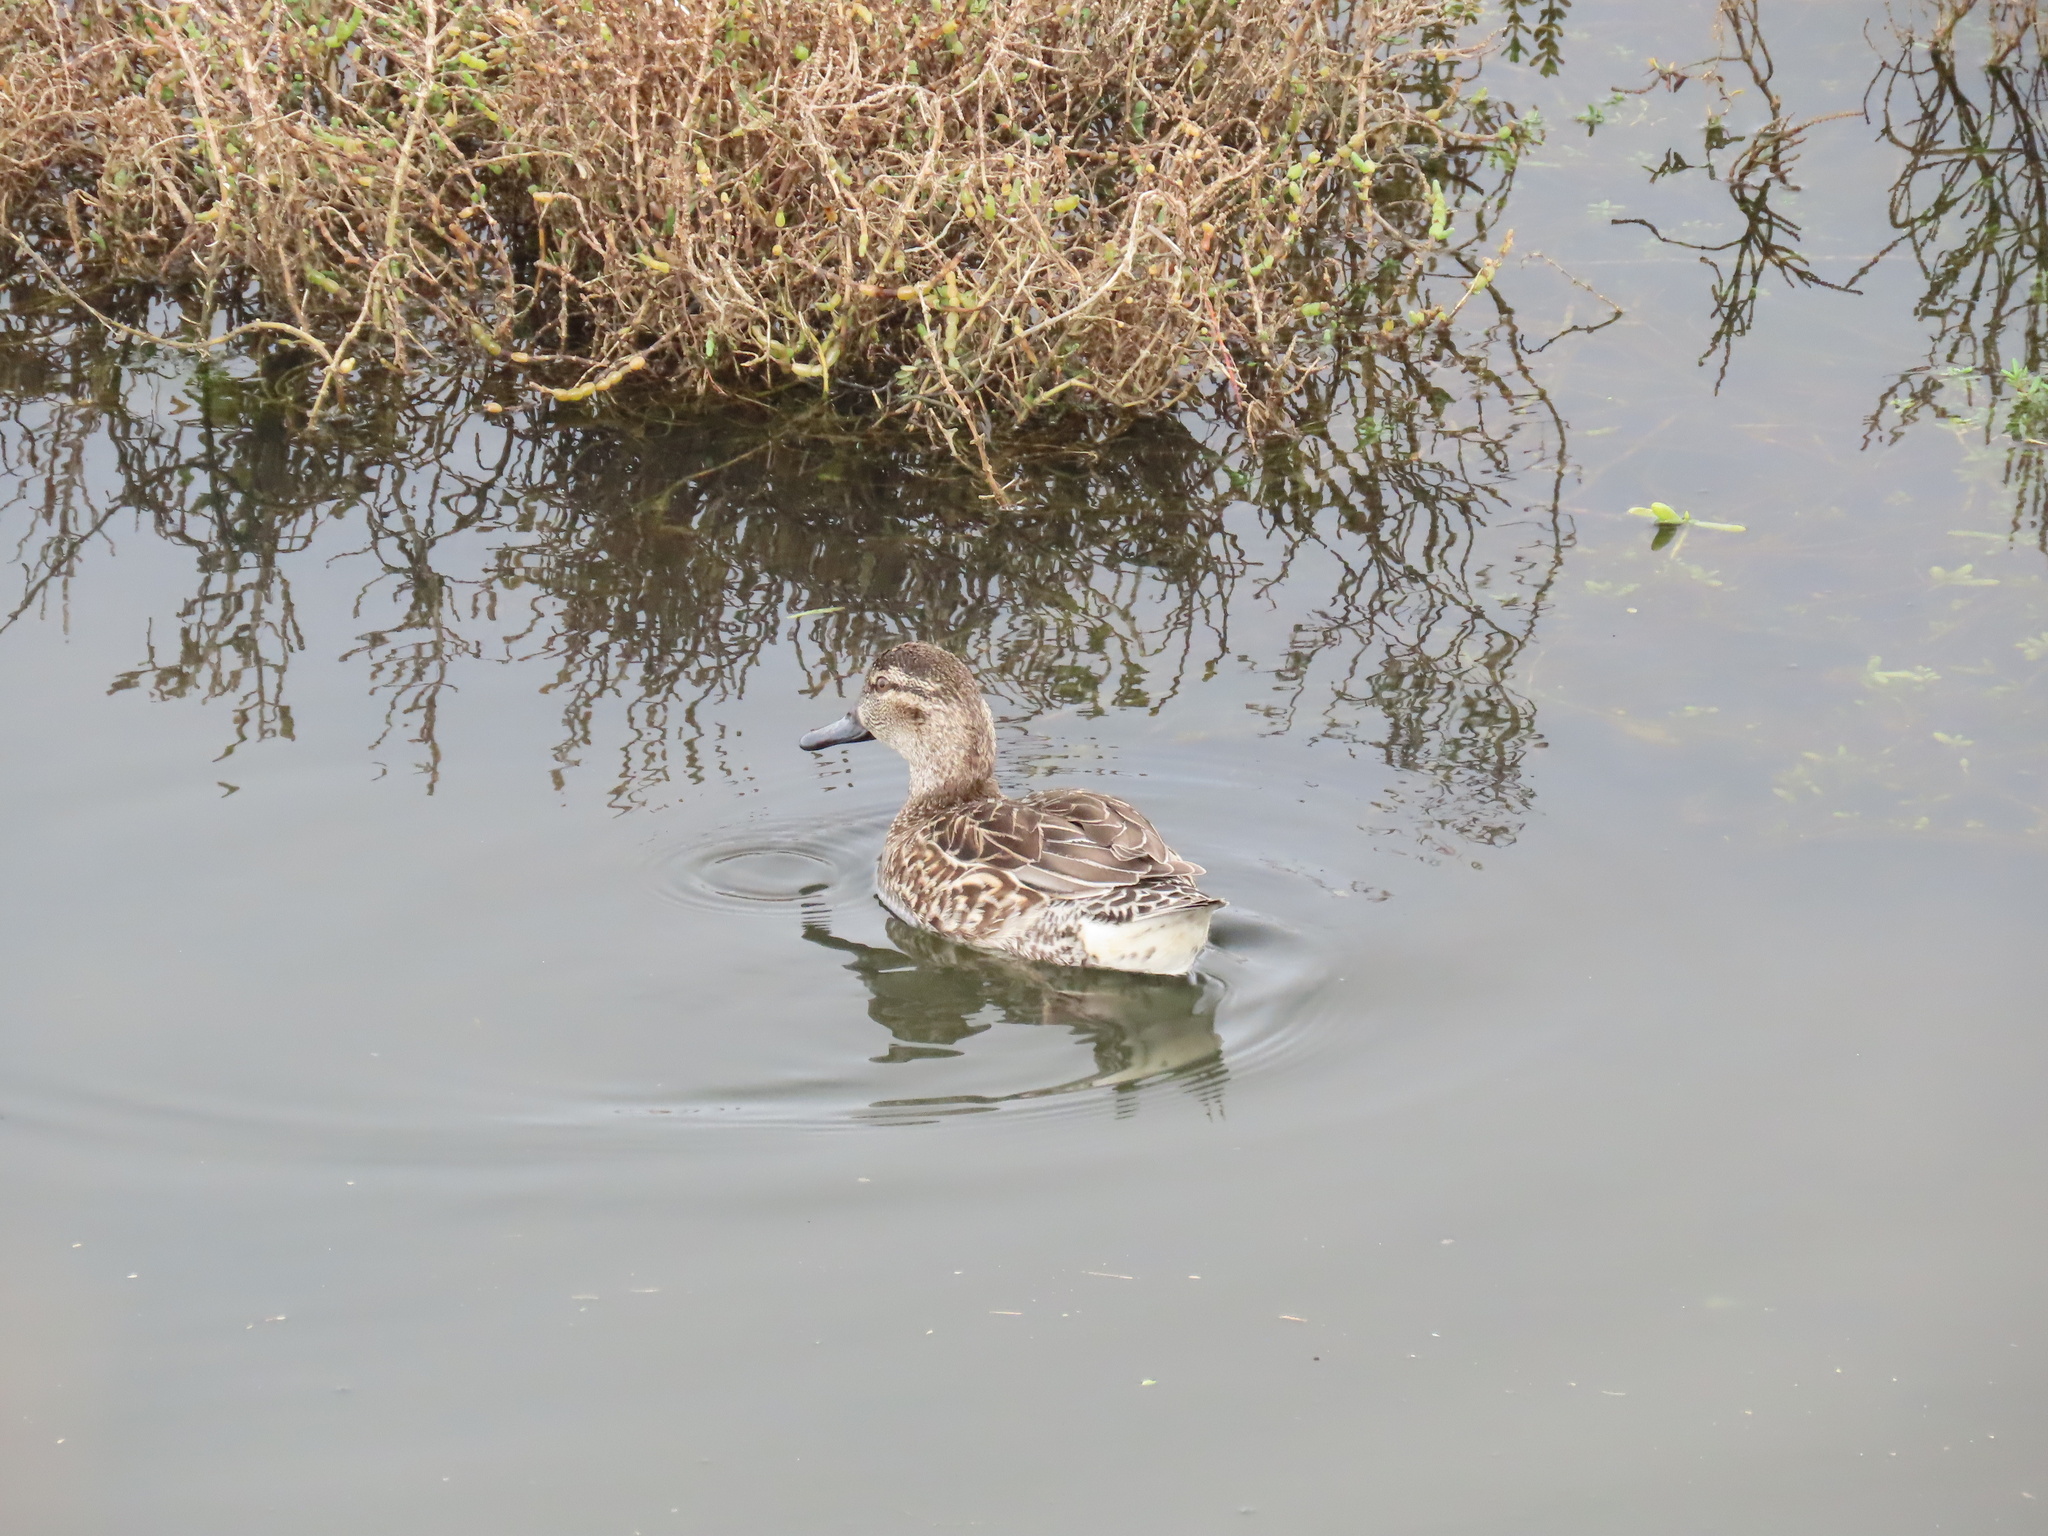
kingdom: Animalia
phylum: Chordata
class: Aves
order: Anseriformes
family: Anatidae
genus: Anas
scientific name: Anas crecca
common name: Eurasian teal
